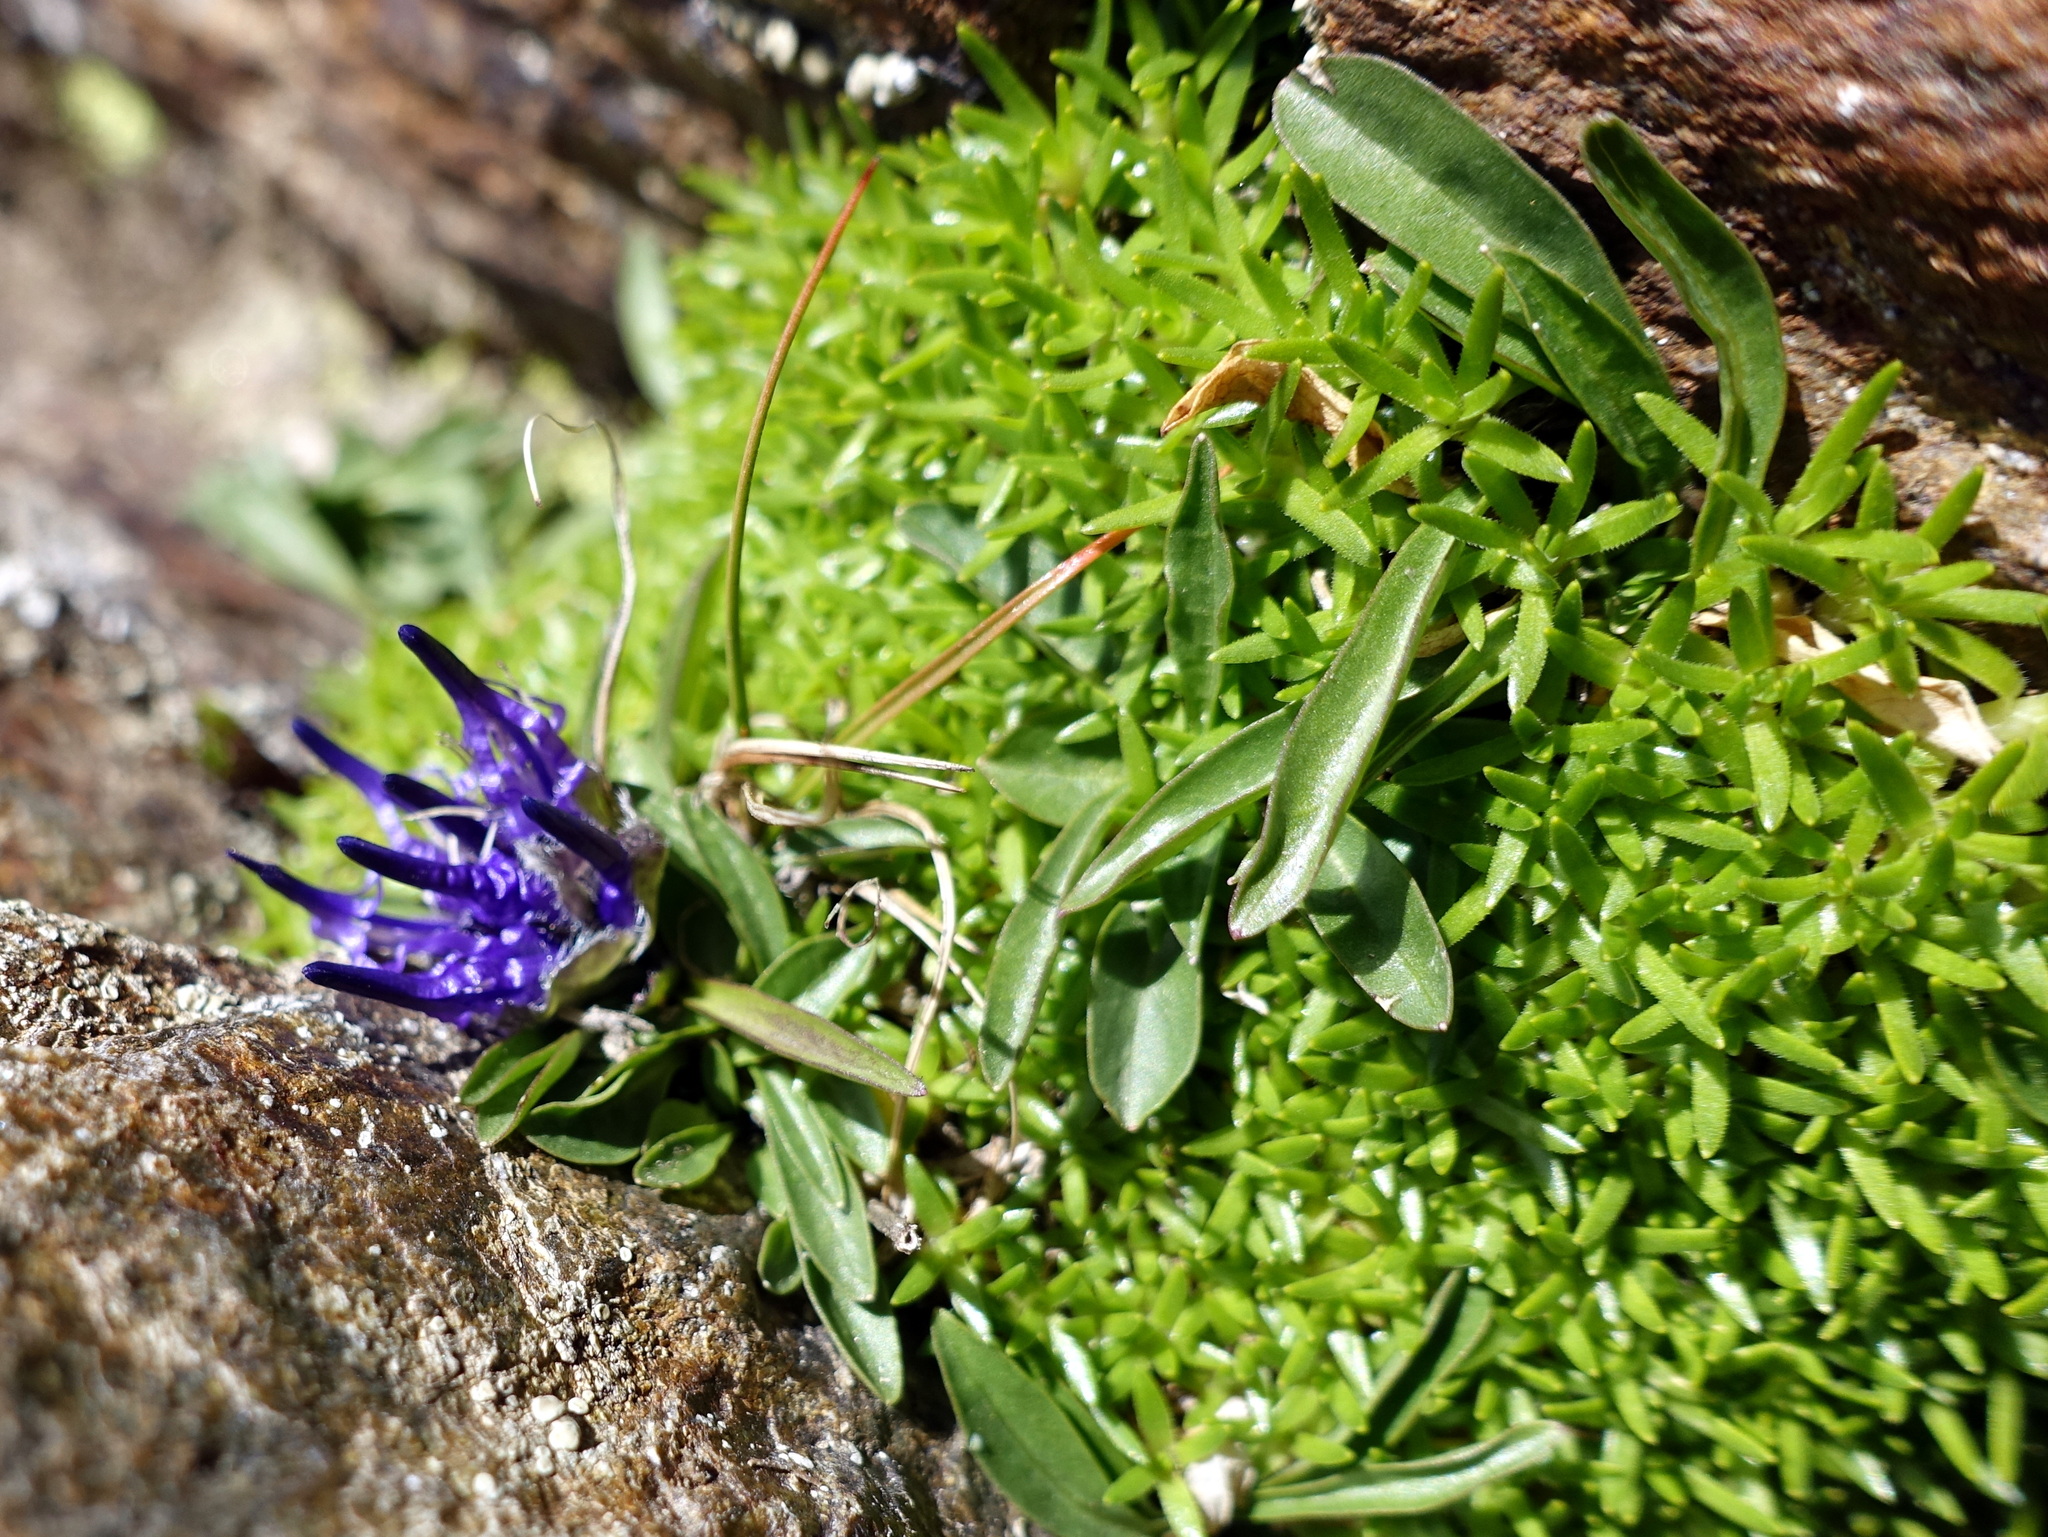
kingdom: Plantae
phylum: Tracheophyta
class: Magnoliopsida
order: Asterales
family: Campanulaceae
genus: Phyteuma
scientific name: Phyteuma globulariifolium
